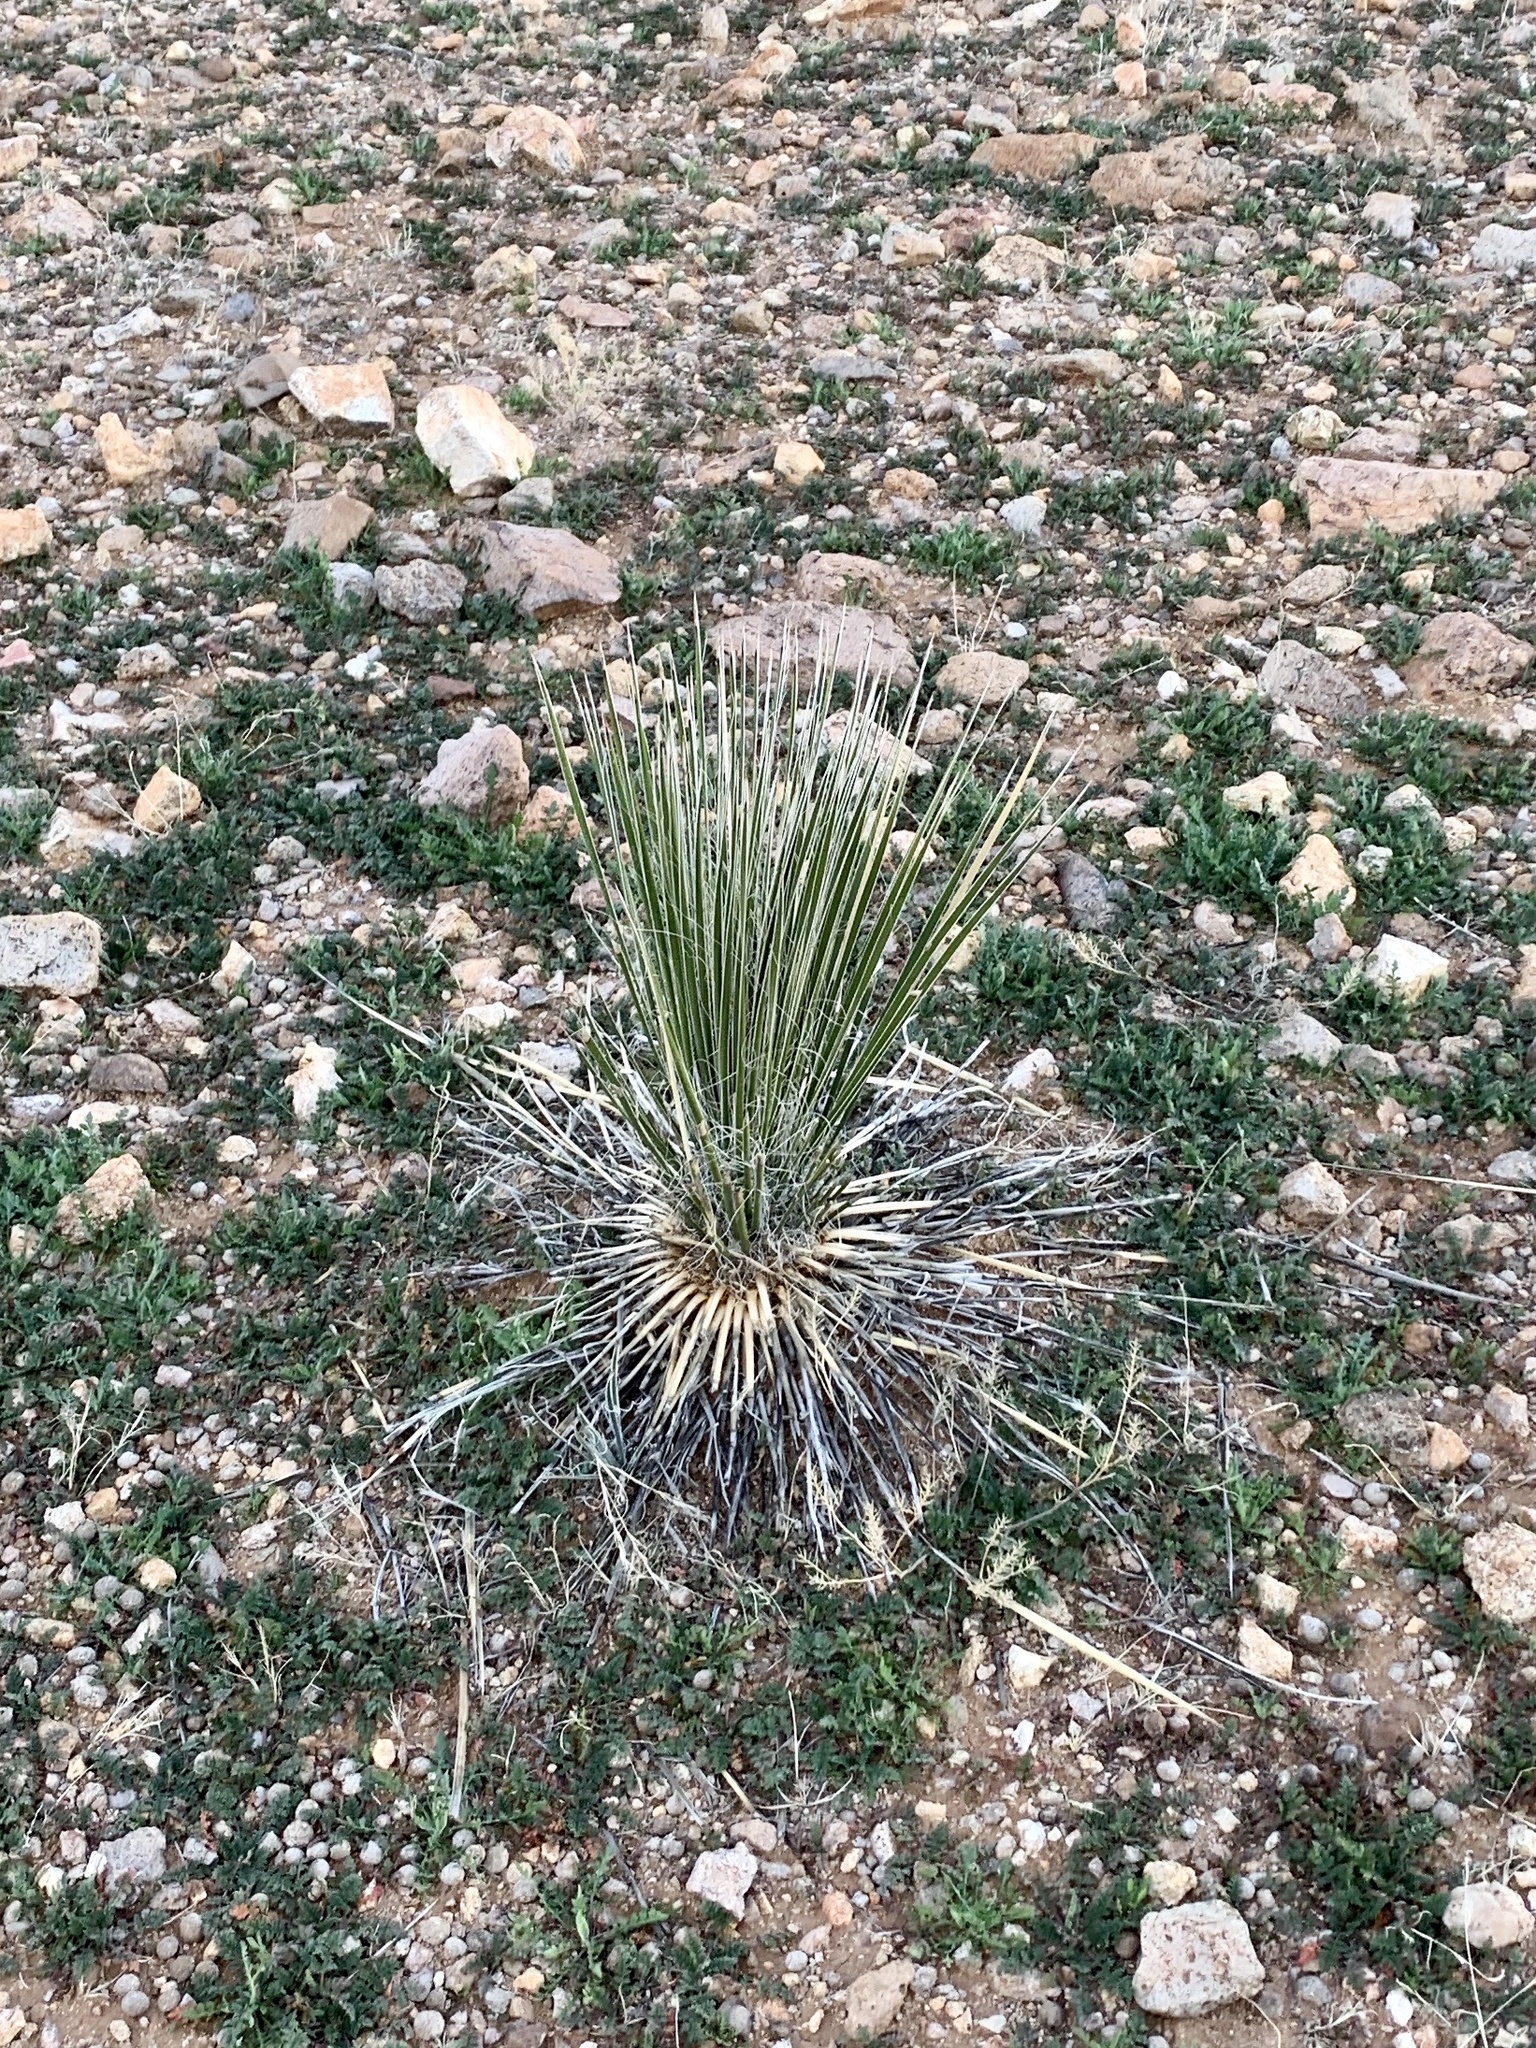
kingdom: Plantae
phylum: Tracheophyta
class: Liliopsida
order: Asparagales
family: Asparagaceae
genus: Yucca
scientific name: Yucca elata
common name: Palmella
